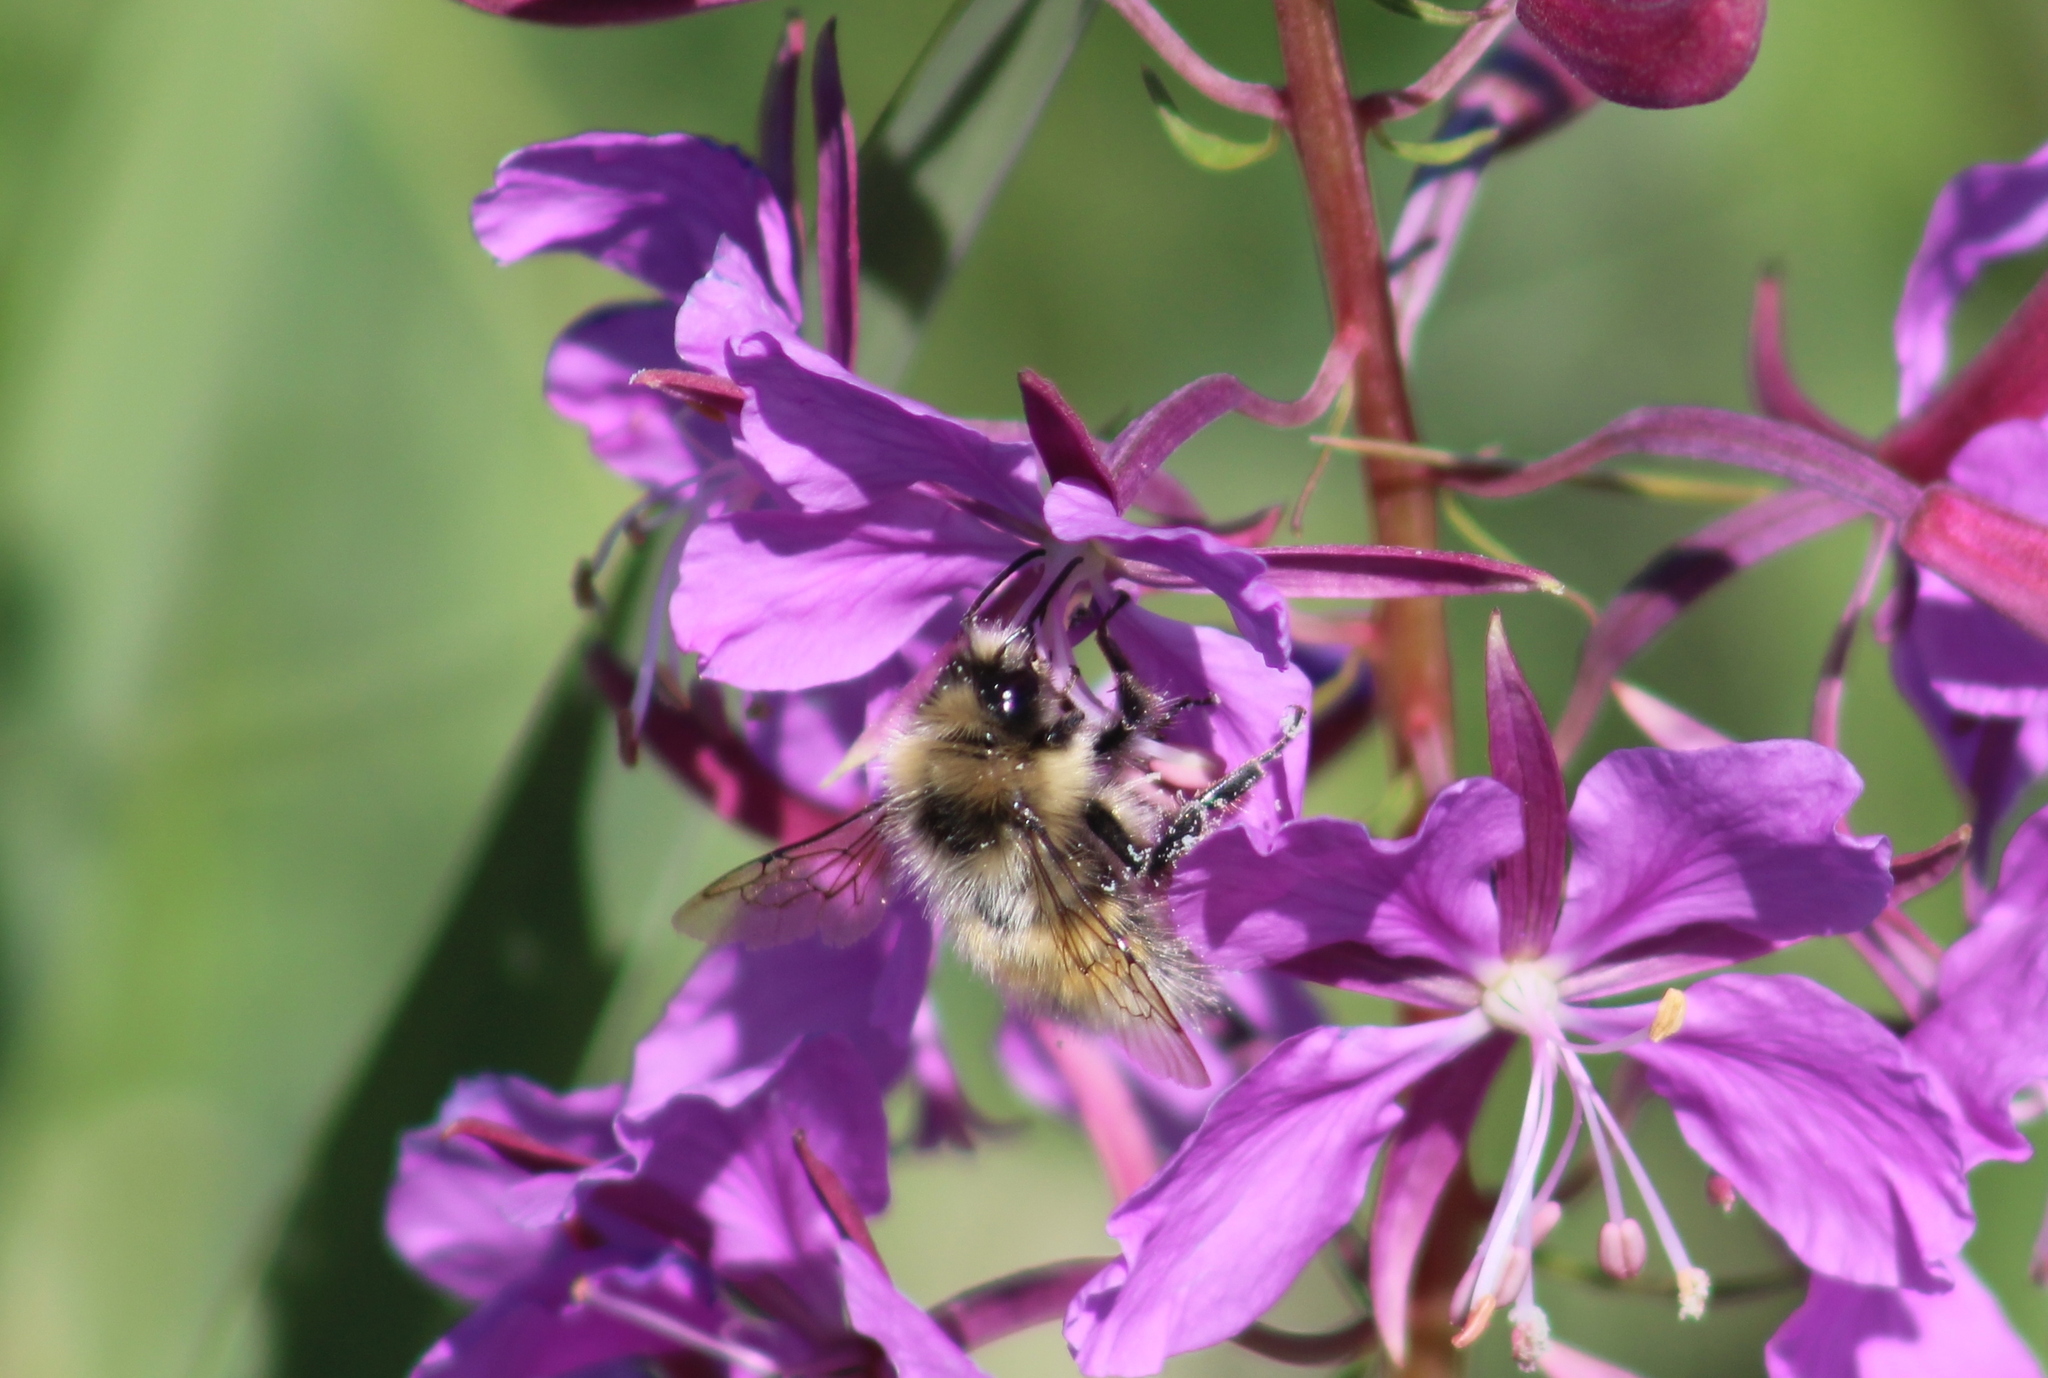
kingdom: Animalia
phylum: Arthropoda
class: Insecta
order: Hymenoptera
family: Apidae
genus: Bombus
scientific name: Bombus sylvicola
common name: Forest bumble bee
